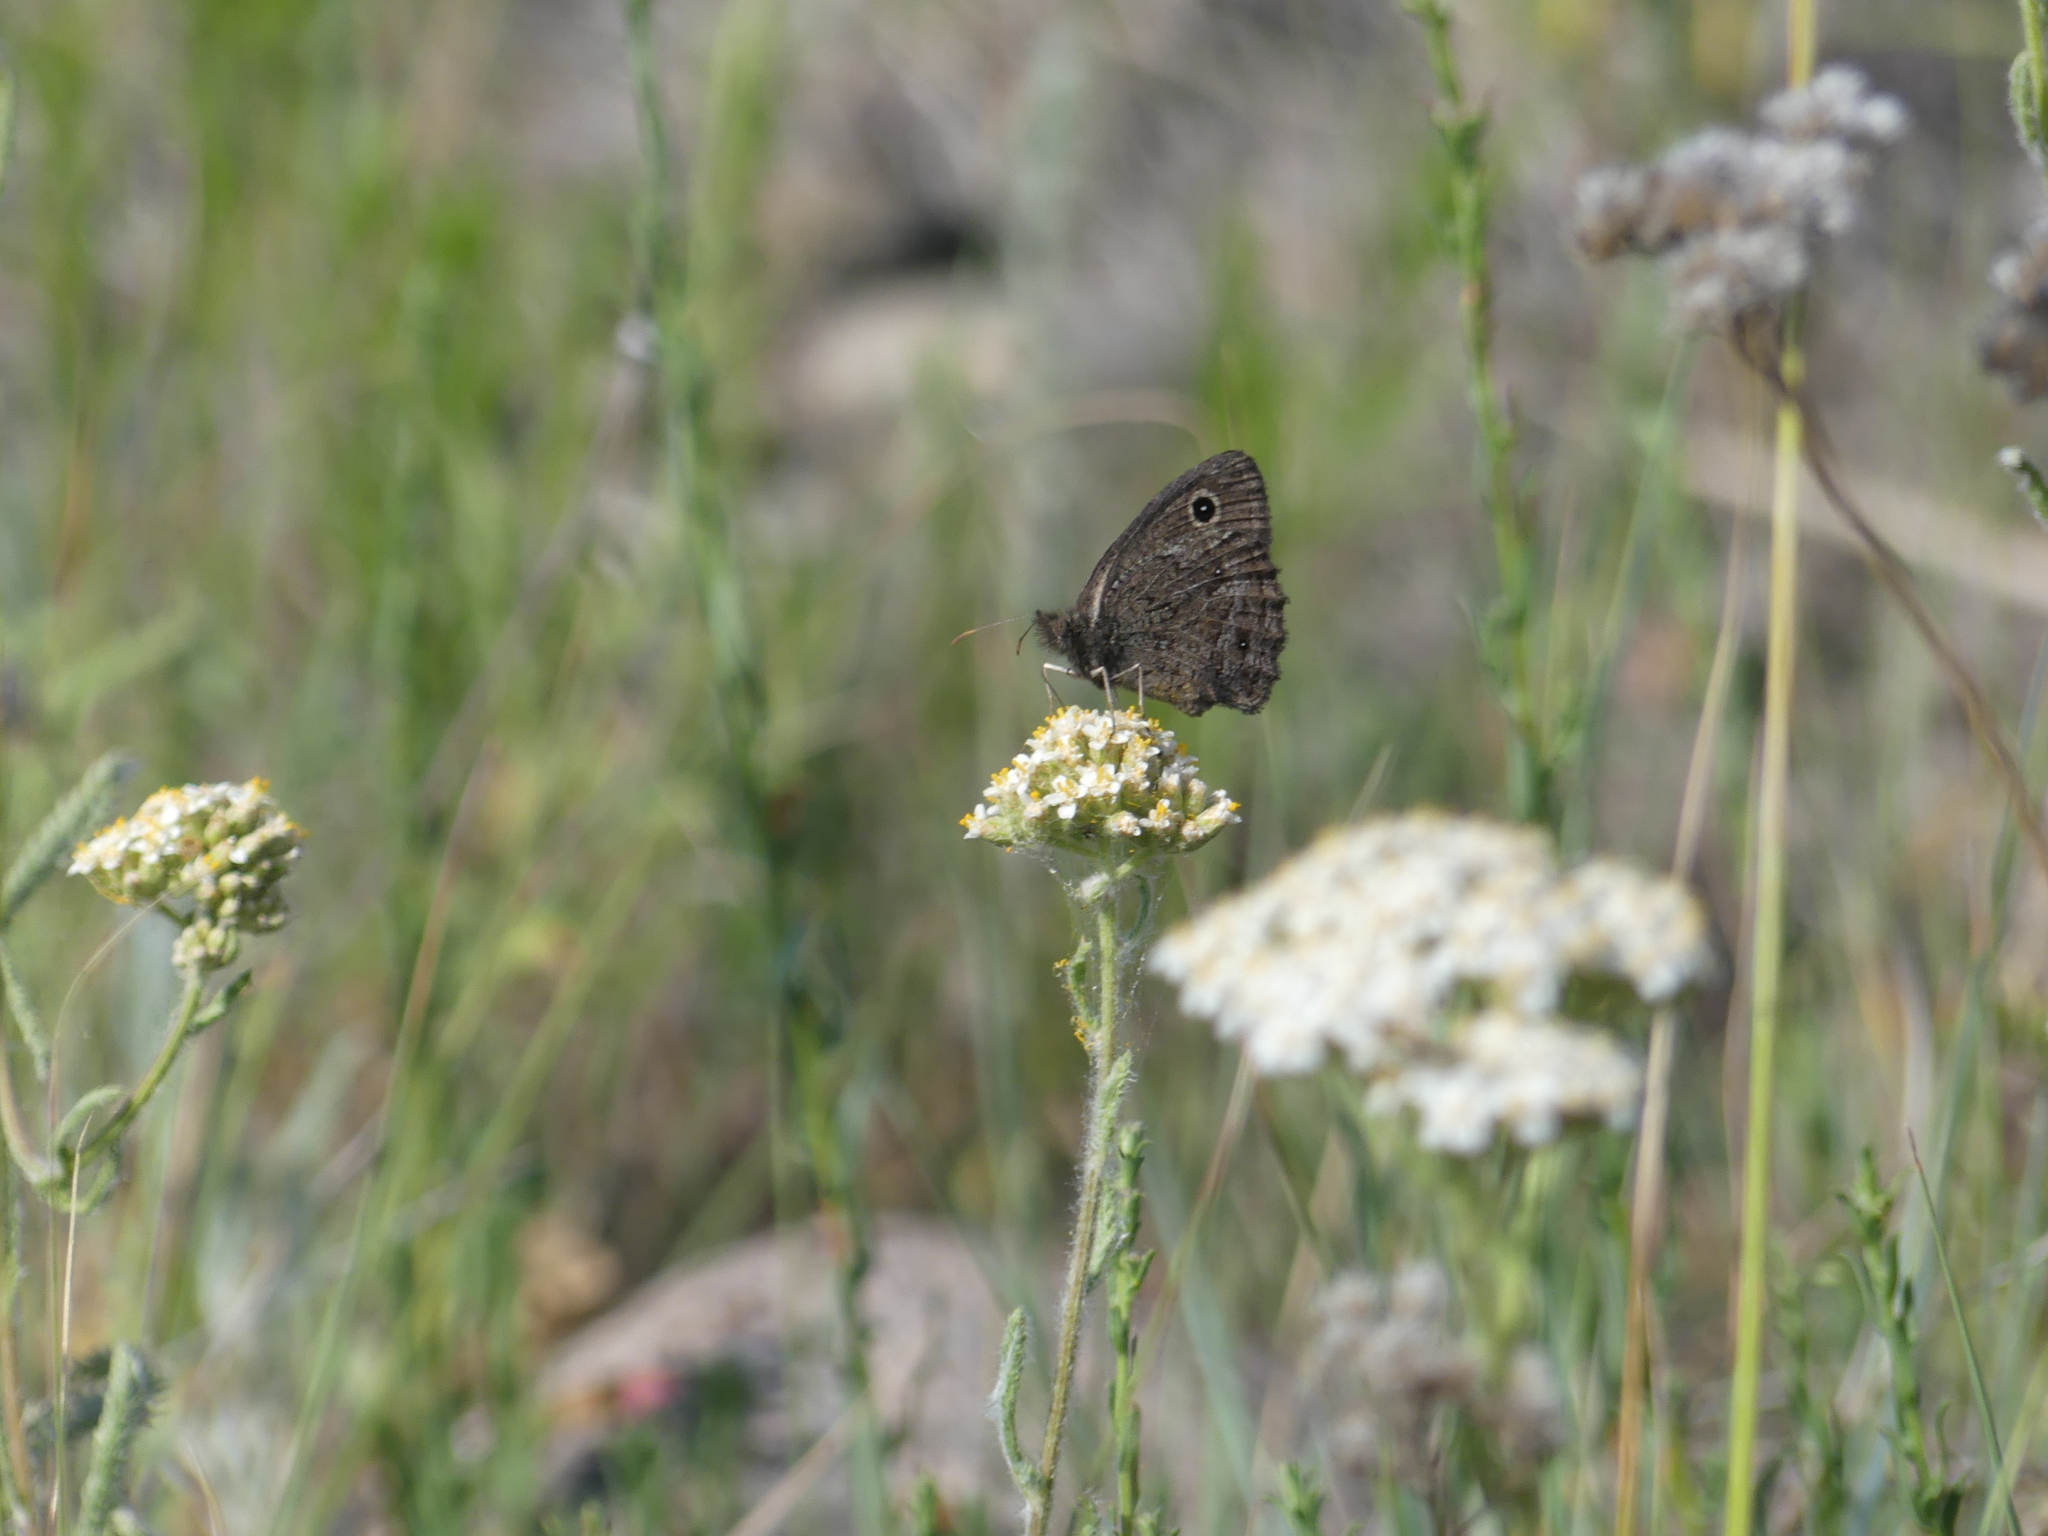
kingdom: Animalia
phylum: Arthropoda
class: Insecta
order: Lepidoptera
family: Nymphalidae
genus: Cercyonis
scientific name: Cercyonis oetus
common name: Small wood-nymph
